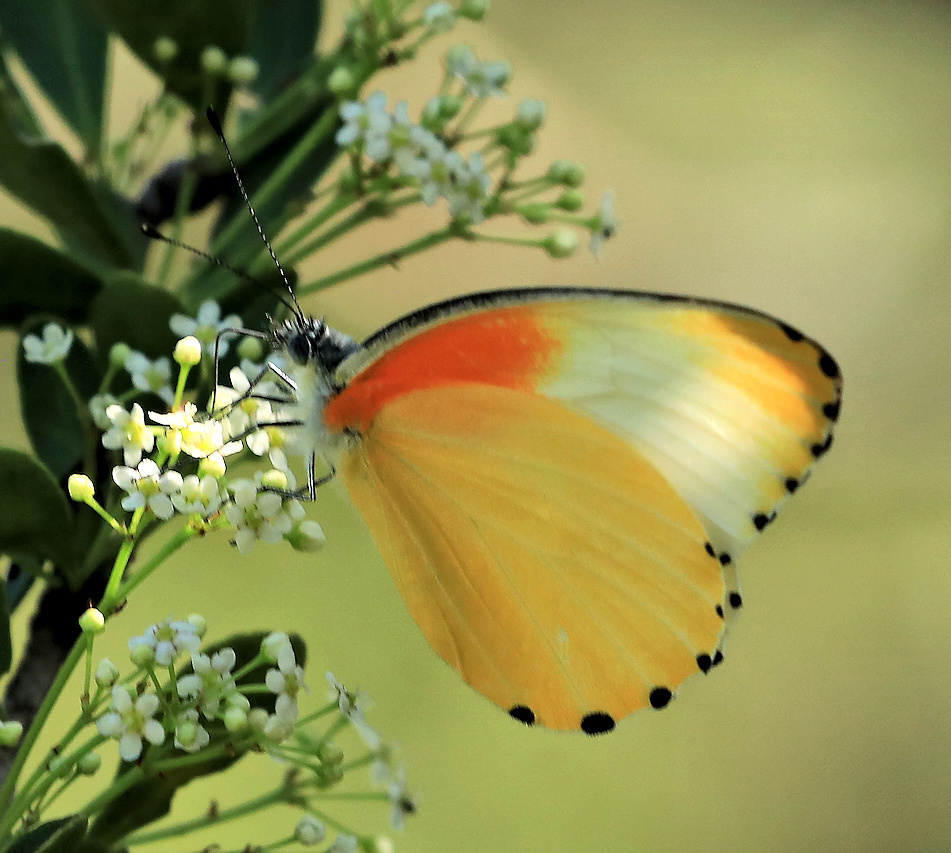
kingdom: Animalia
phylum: Arthropoda
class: Insecta
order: Lepidoptera
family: Pieridae
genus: Mylothris
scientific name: Mylothris agathina
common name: Eastern dotted border
